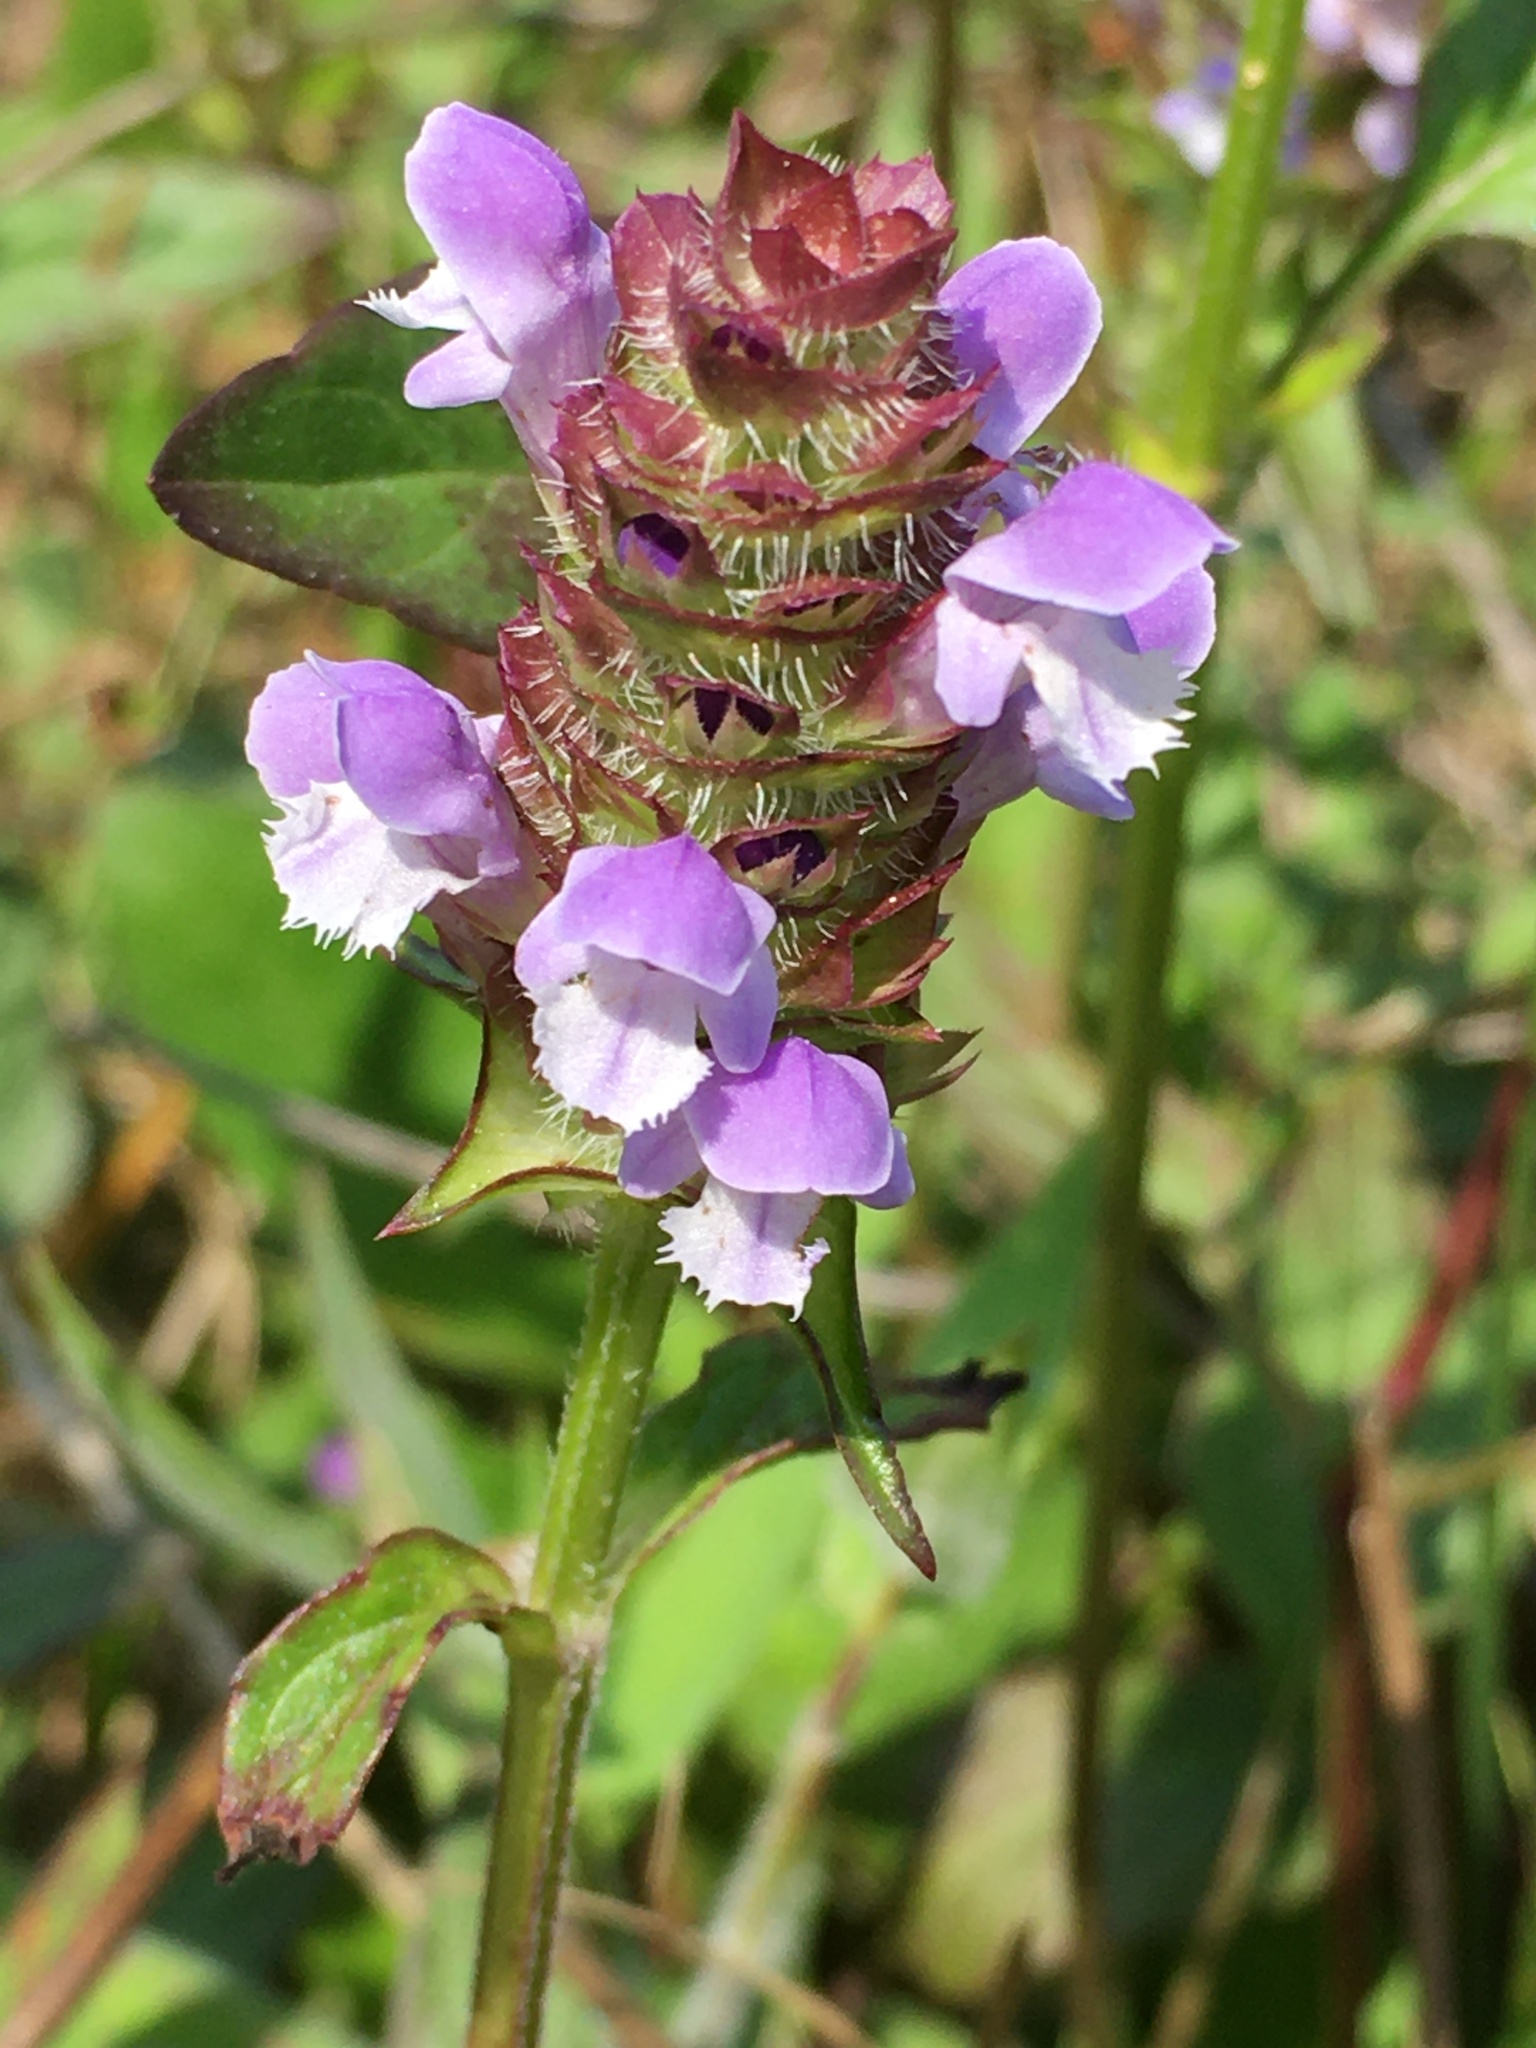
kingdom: Plantae
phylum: Tracheophyta
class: Magnoliopsida
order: Lamiales
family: Lamiaceae
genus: Prunella
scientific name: Prunella vulgaris
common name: Heal-all
